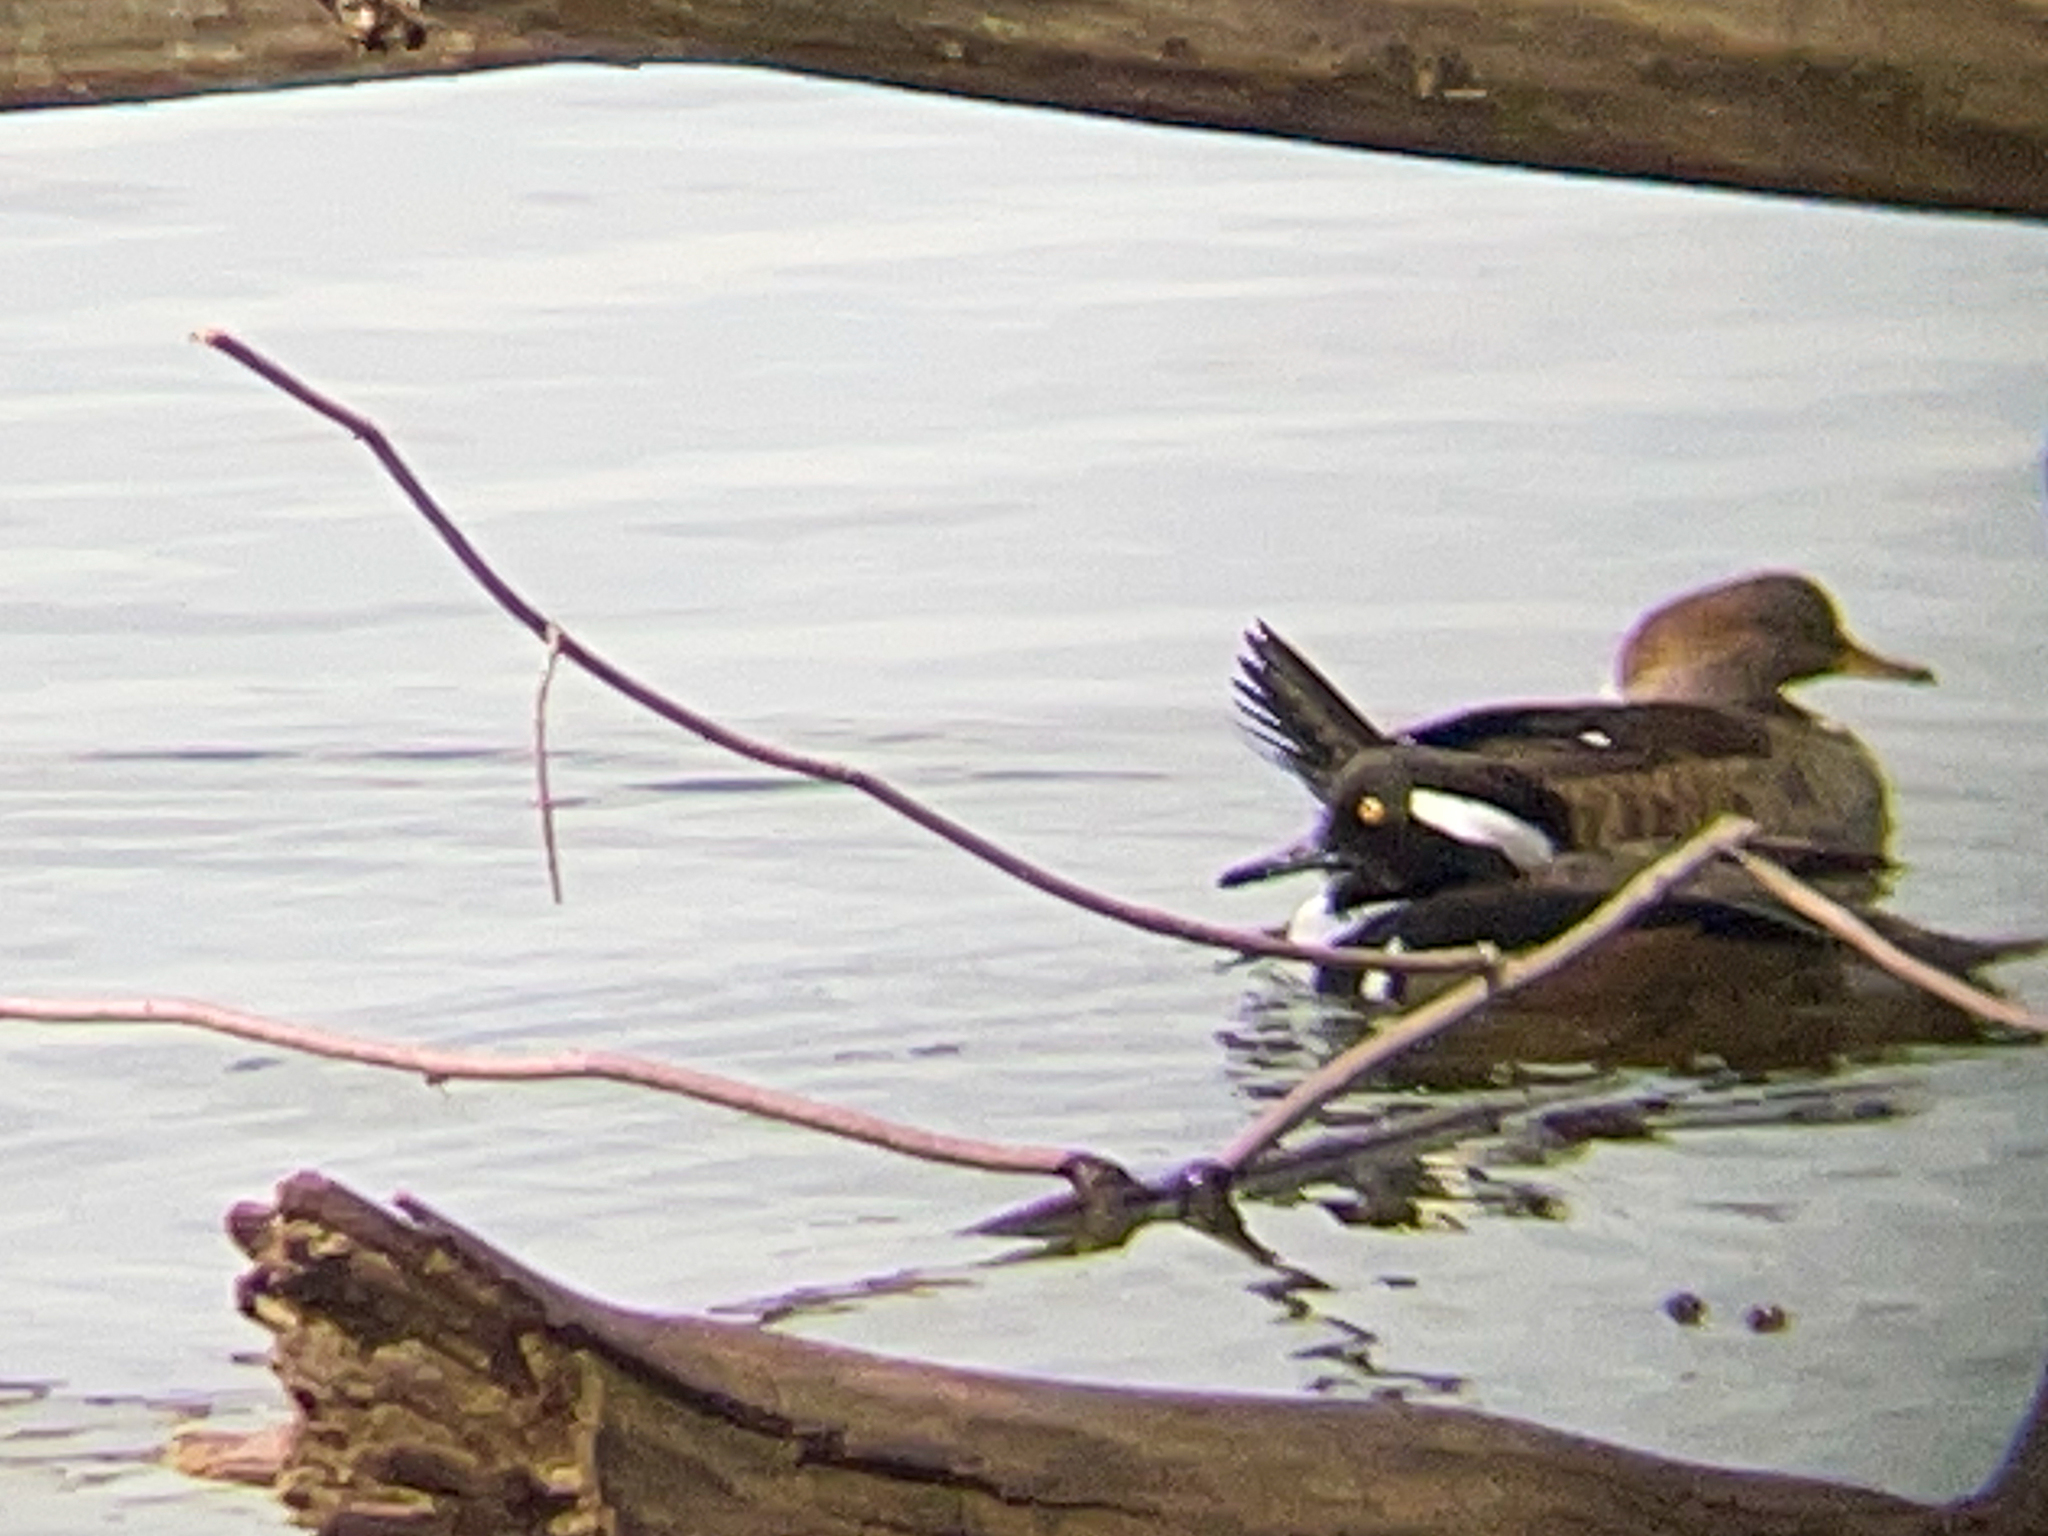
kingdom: Animalia
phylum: Chordata
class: Aves
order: Anseriformes
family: Anatidae
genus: Lophodytes
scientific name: Lophodytes cucullatus
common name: Hooded merganser
